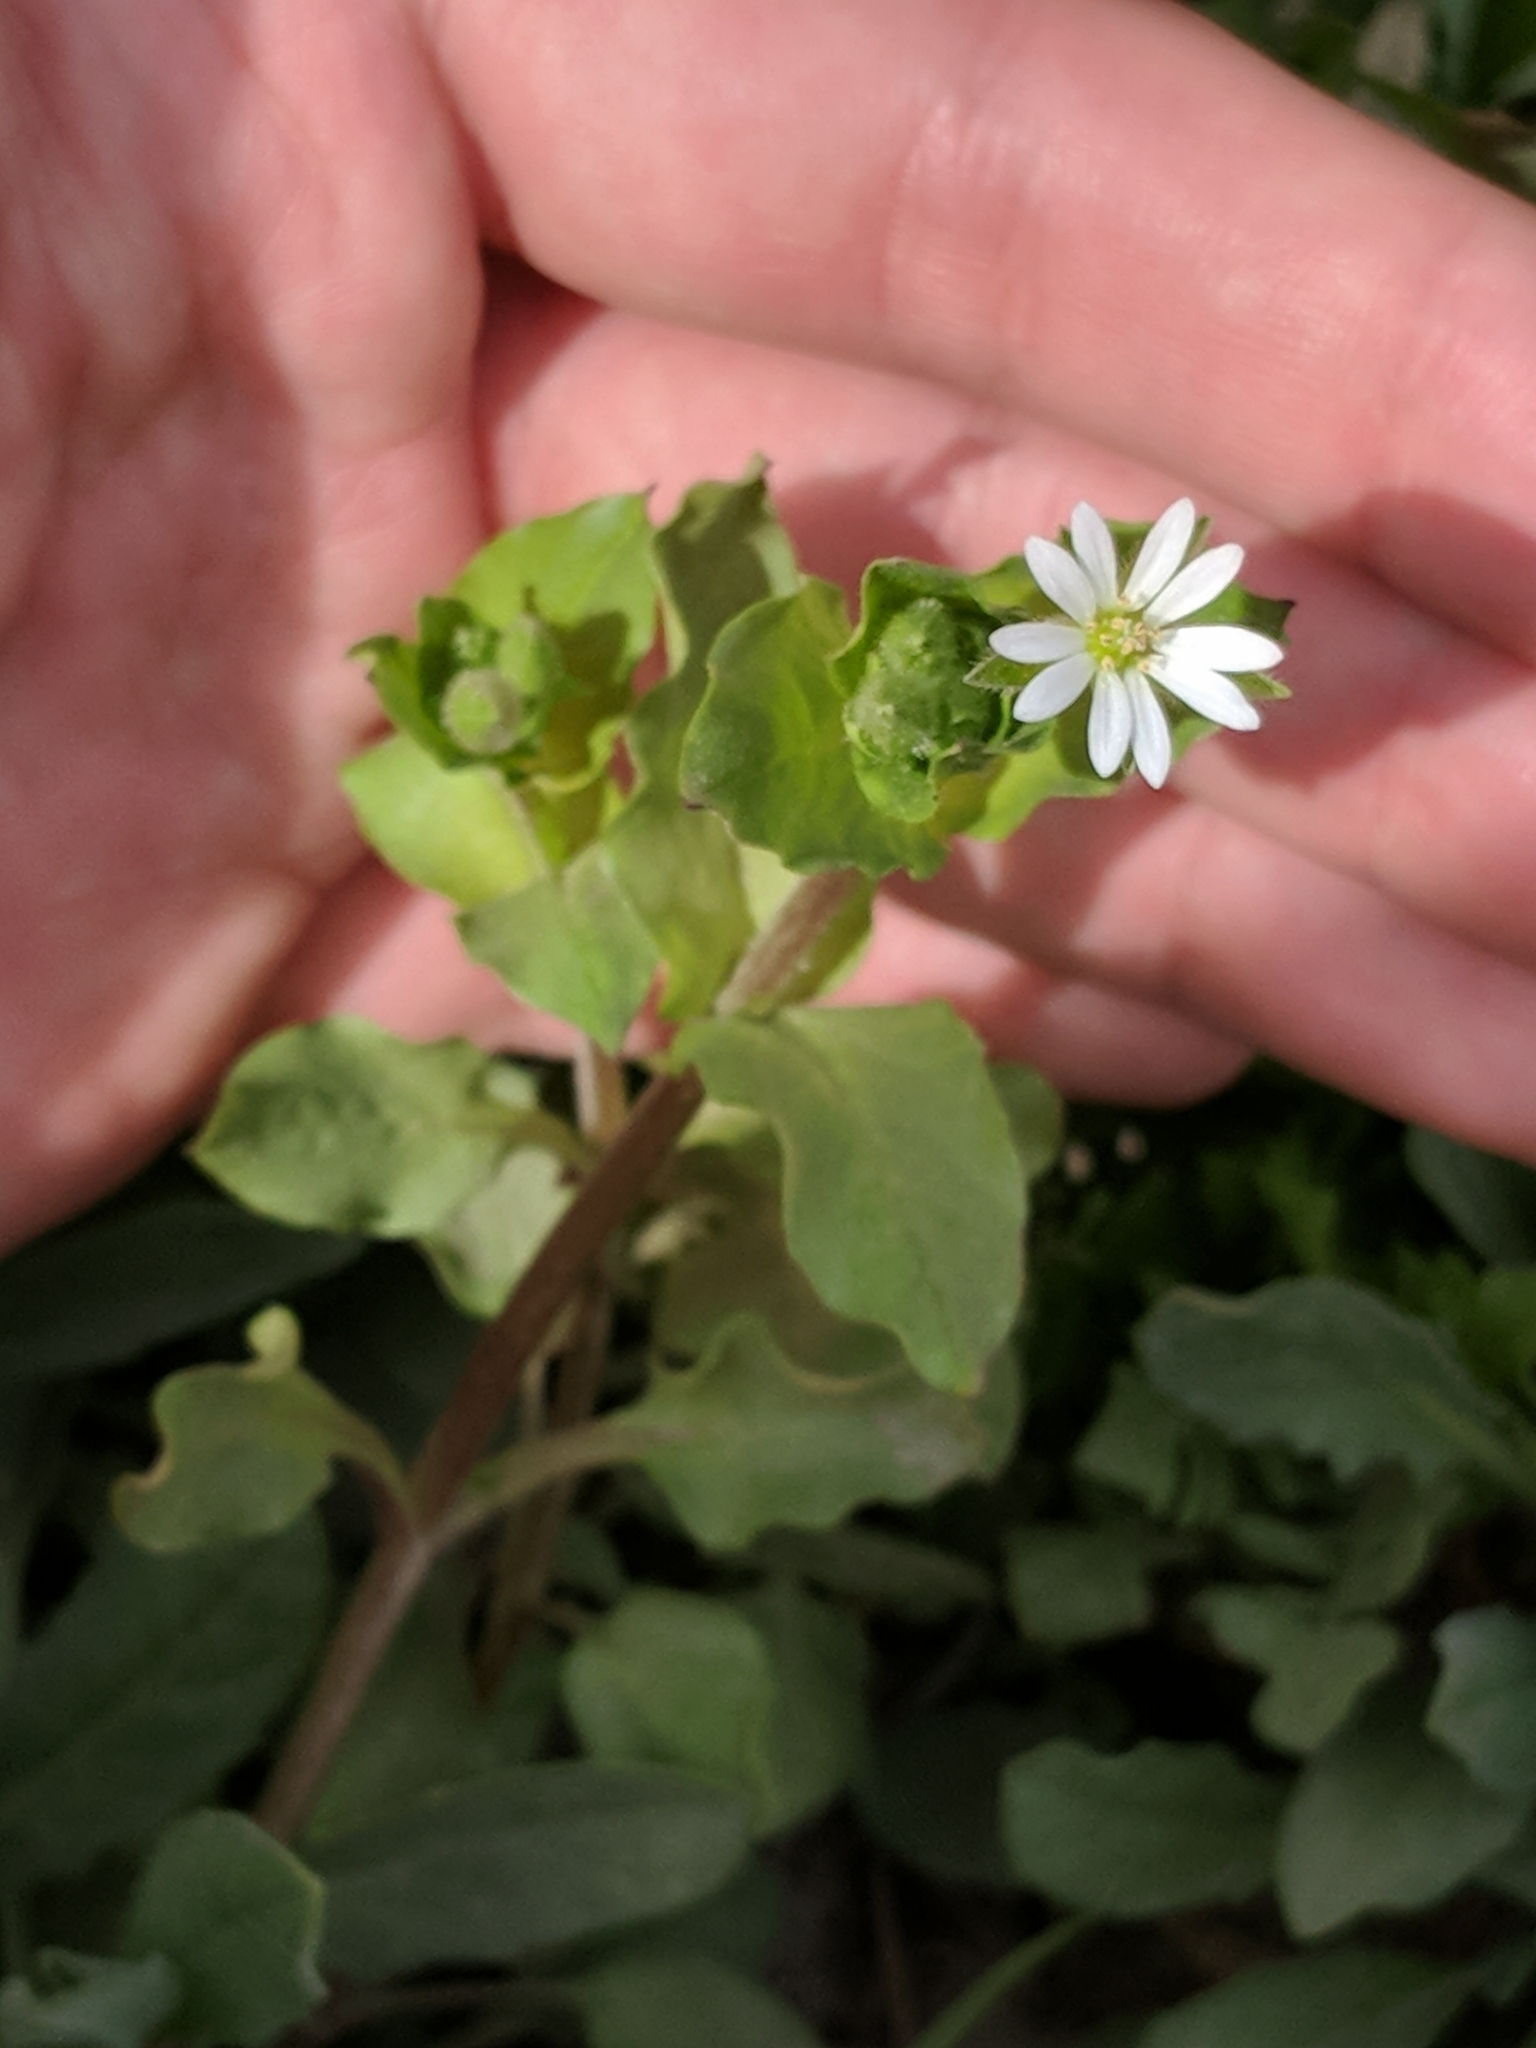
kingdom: Plantae
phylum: Tracheophyta
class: Magnoliopsida
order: Caryophyllales
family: Caryophyllaceae
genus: Stellaria
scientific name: Stellaria media
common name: Common chickweed
